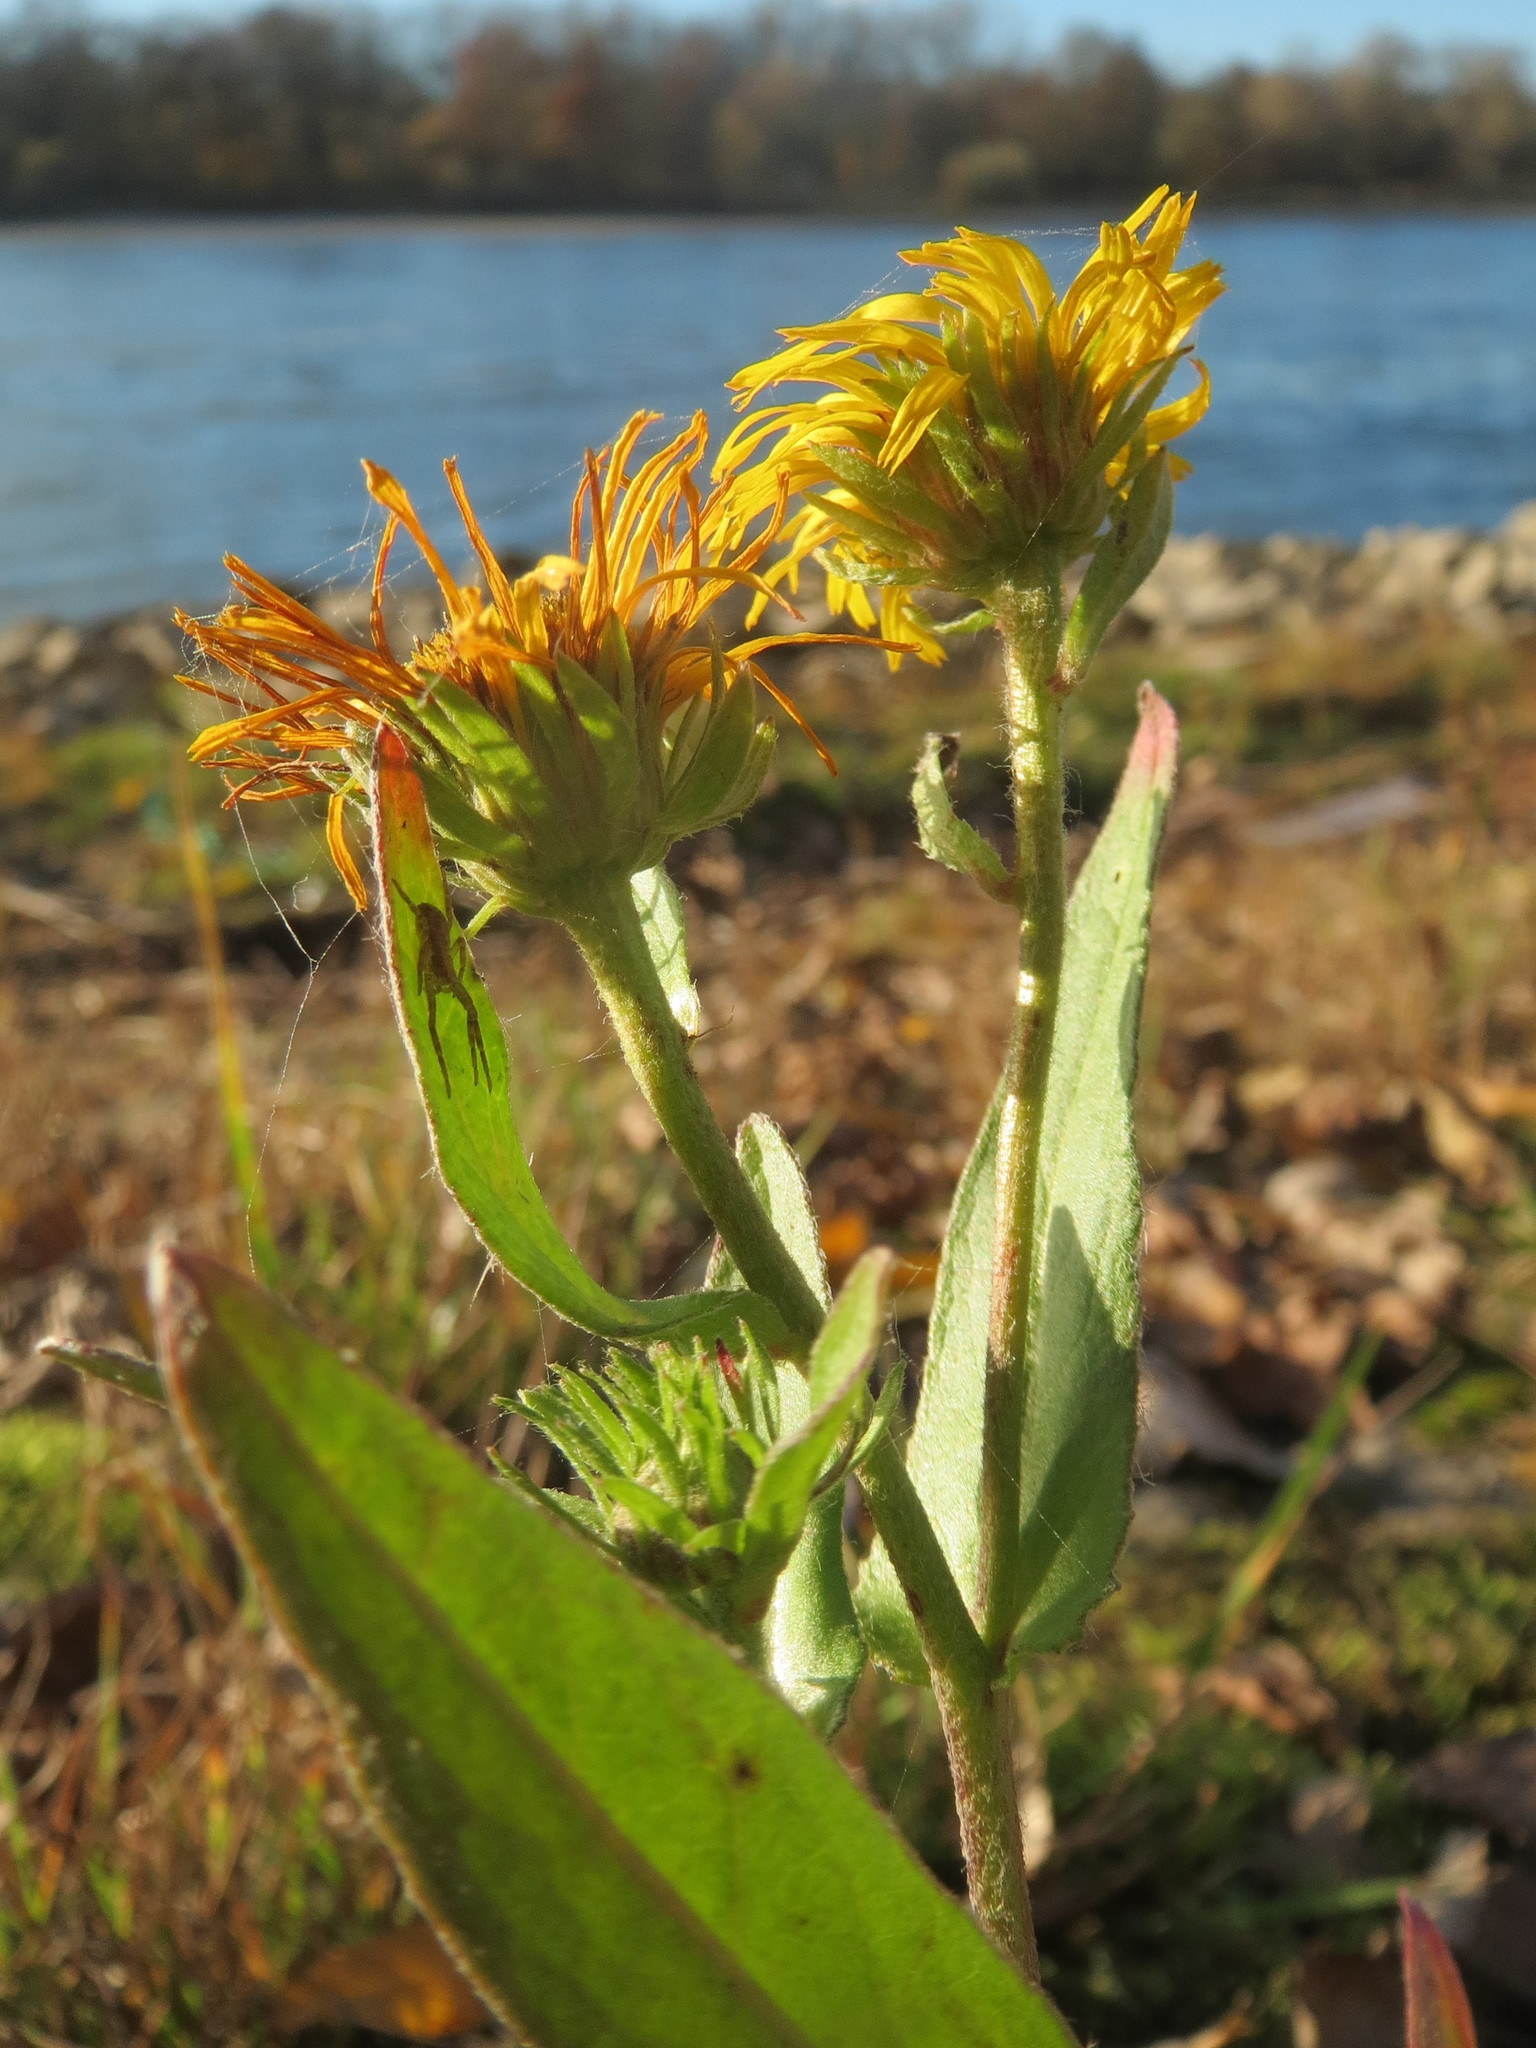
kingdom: Plantae
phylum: Tracheophyta
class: Magnoliopsida
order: Asterales
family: Asteraceae
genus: Pentanema
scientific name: Pentanema britannicum
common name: British elecampane
